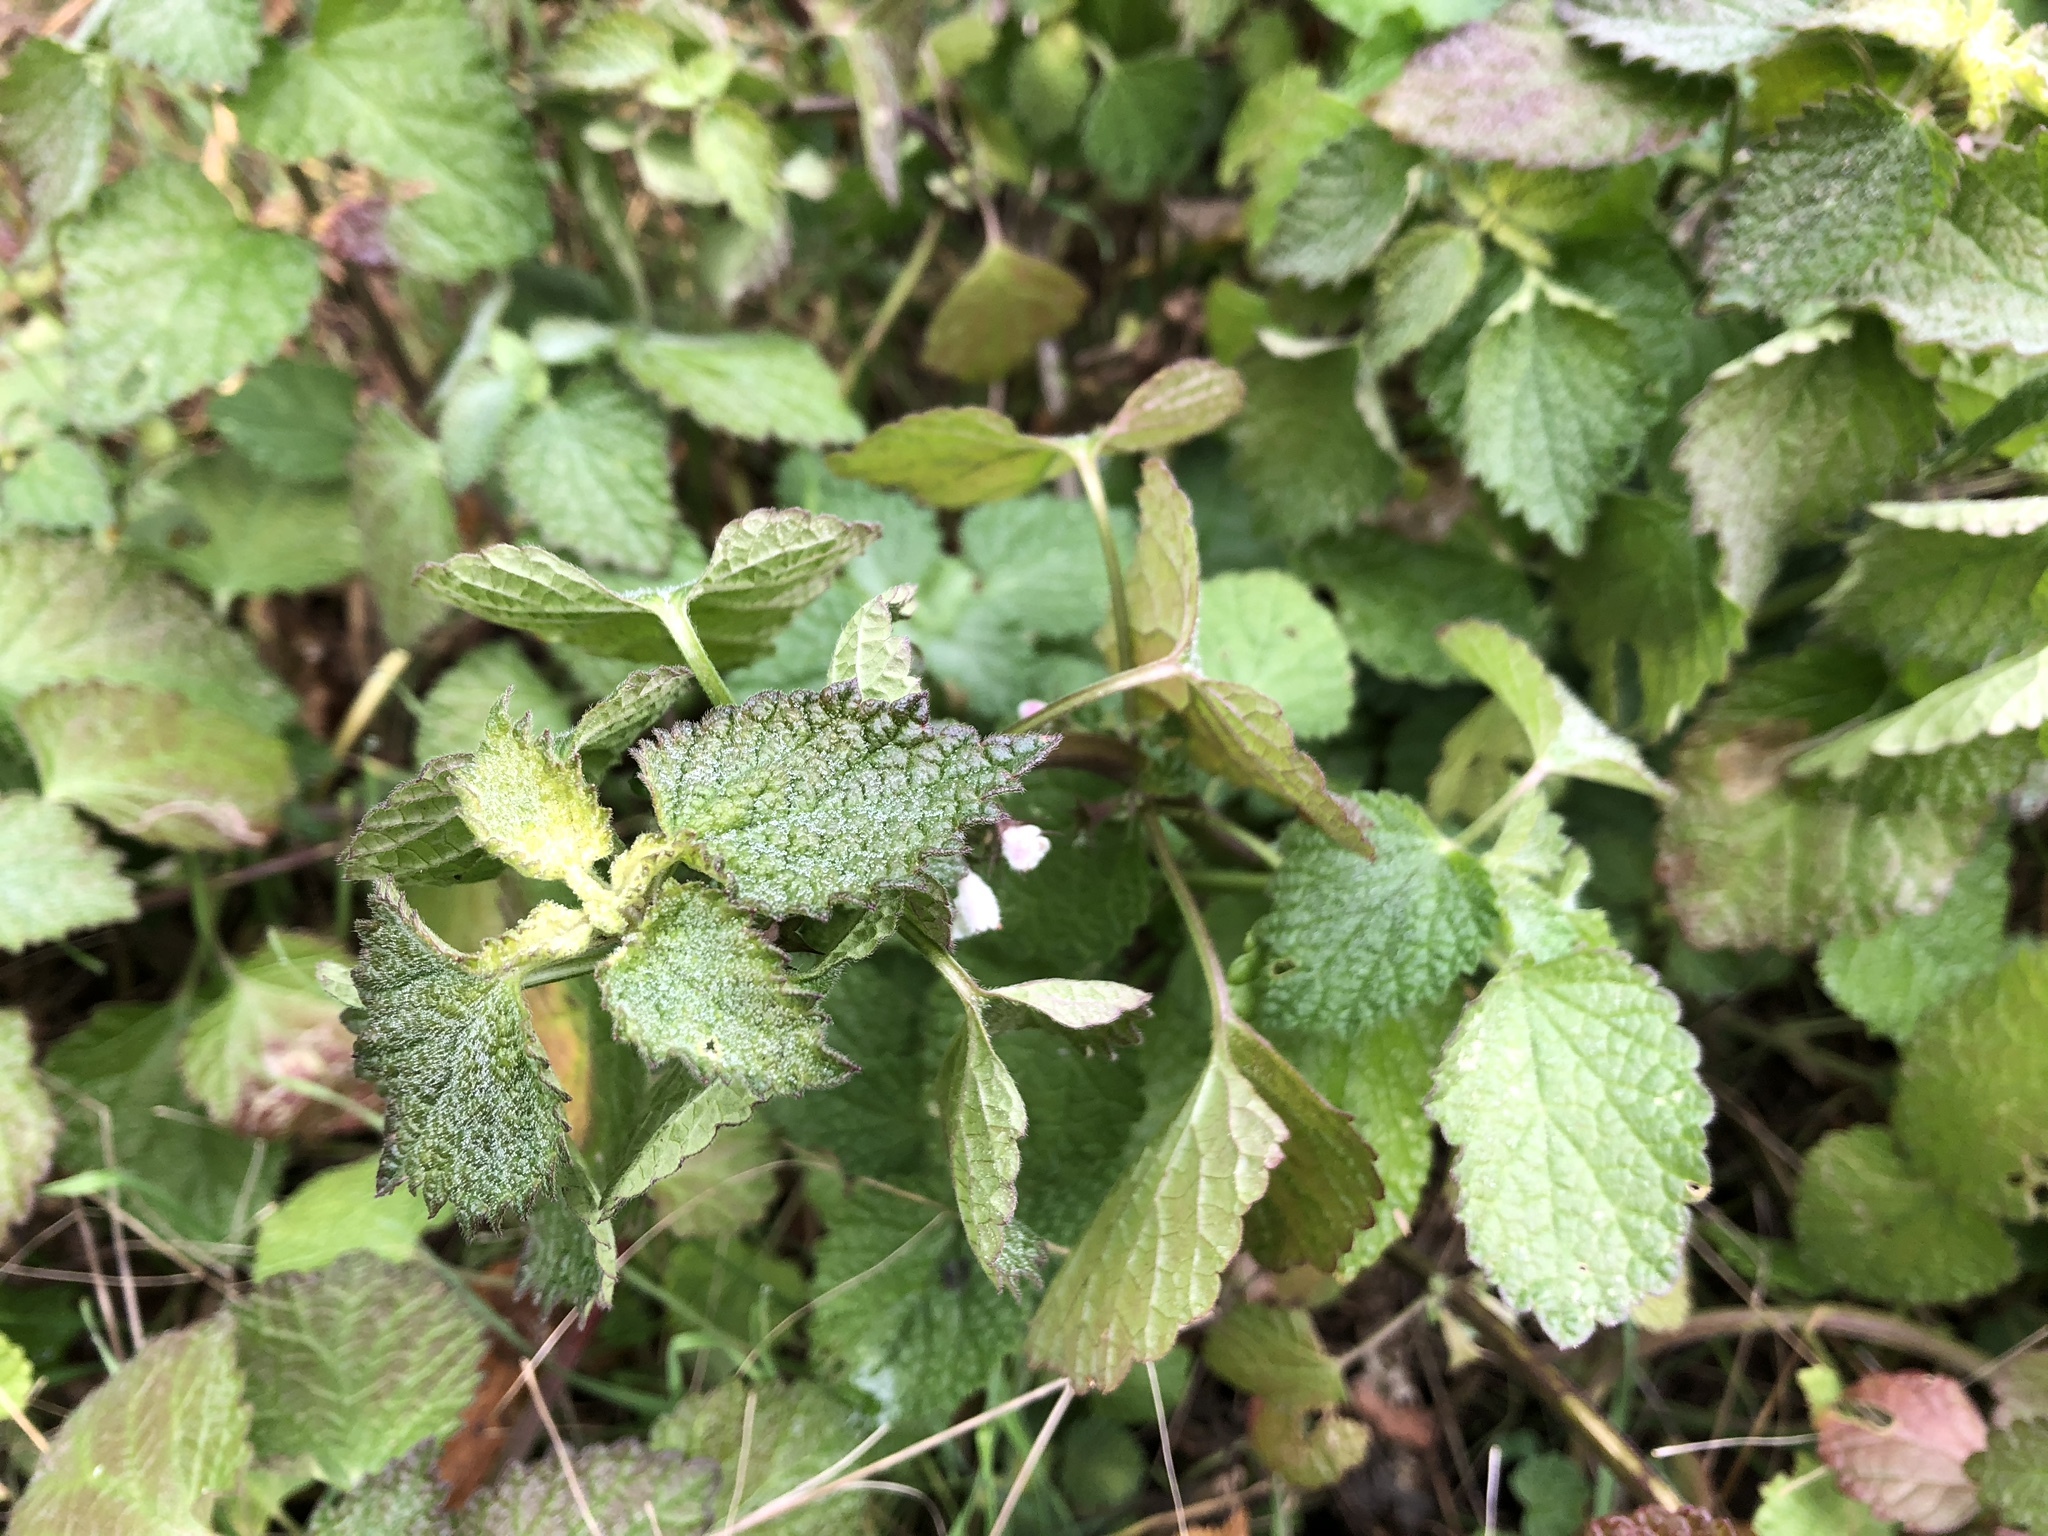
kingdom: Plantae
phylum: Tracheophyta
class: Magnoliopsida
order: Lamiales
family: Lamiaceae
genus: Ballota
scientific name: Ballota nigra
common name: Black horehound
